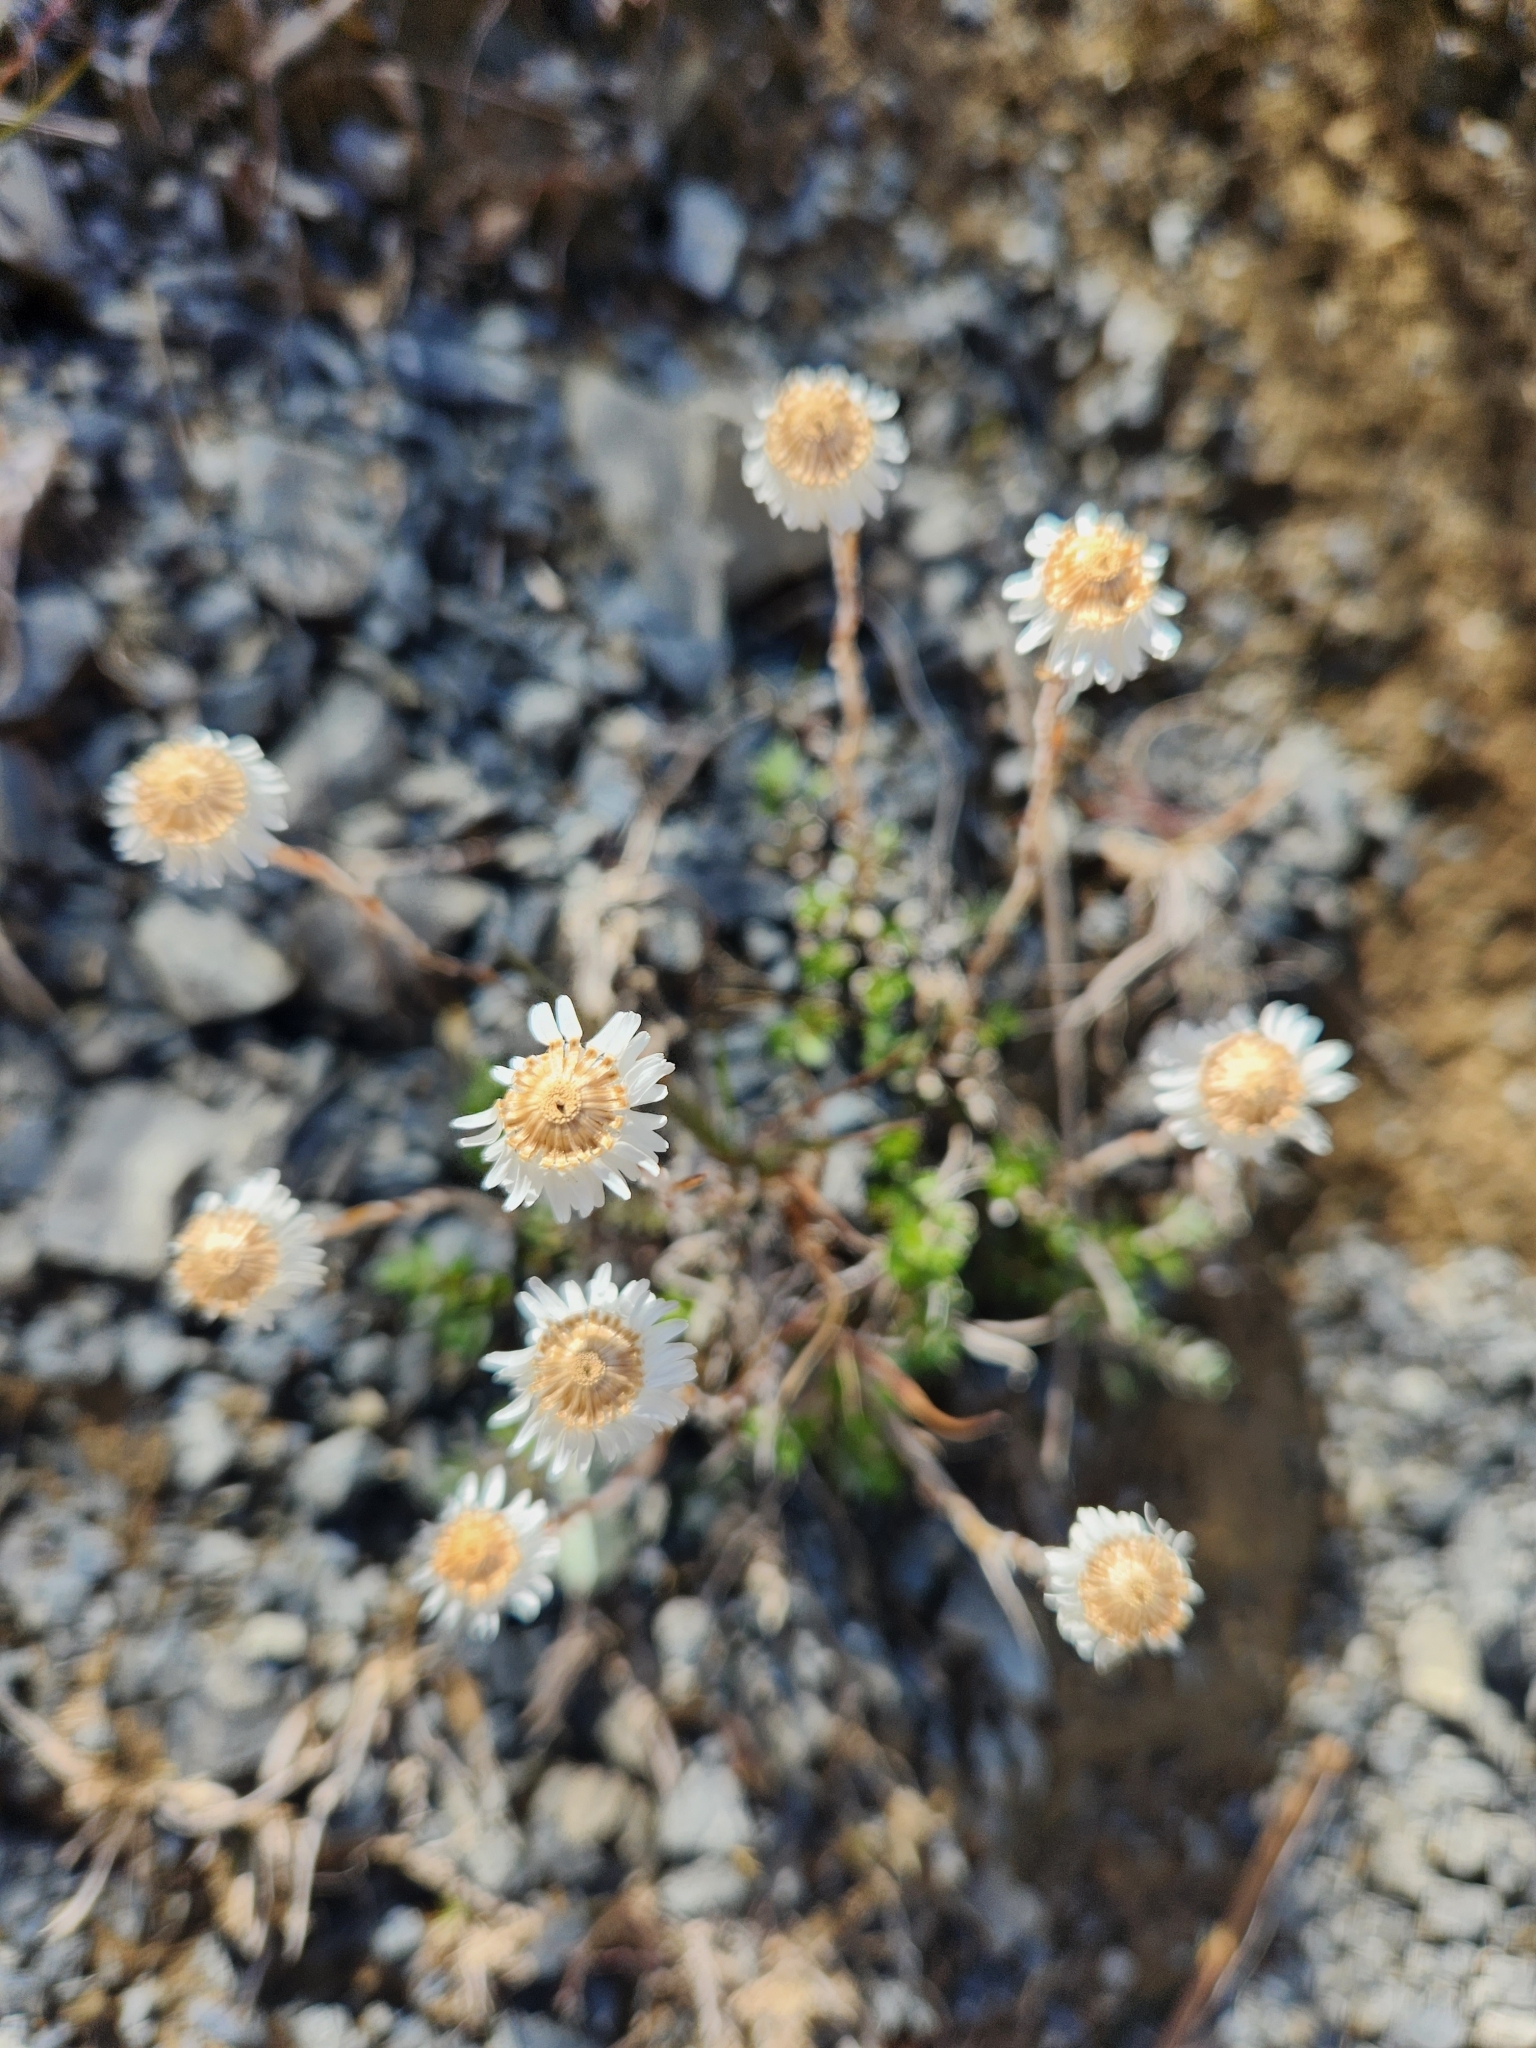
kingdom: Plantae
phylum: Tracheophyta
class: Magnoliopsida
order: Asterales
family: Asteraceae
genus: Anaphalioides
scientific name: Anaphalioides bellidioides
